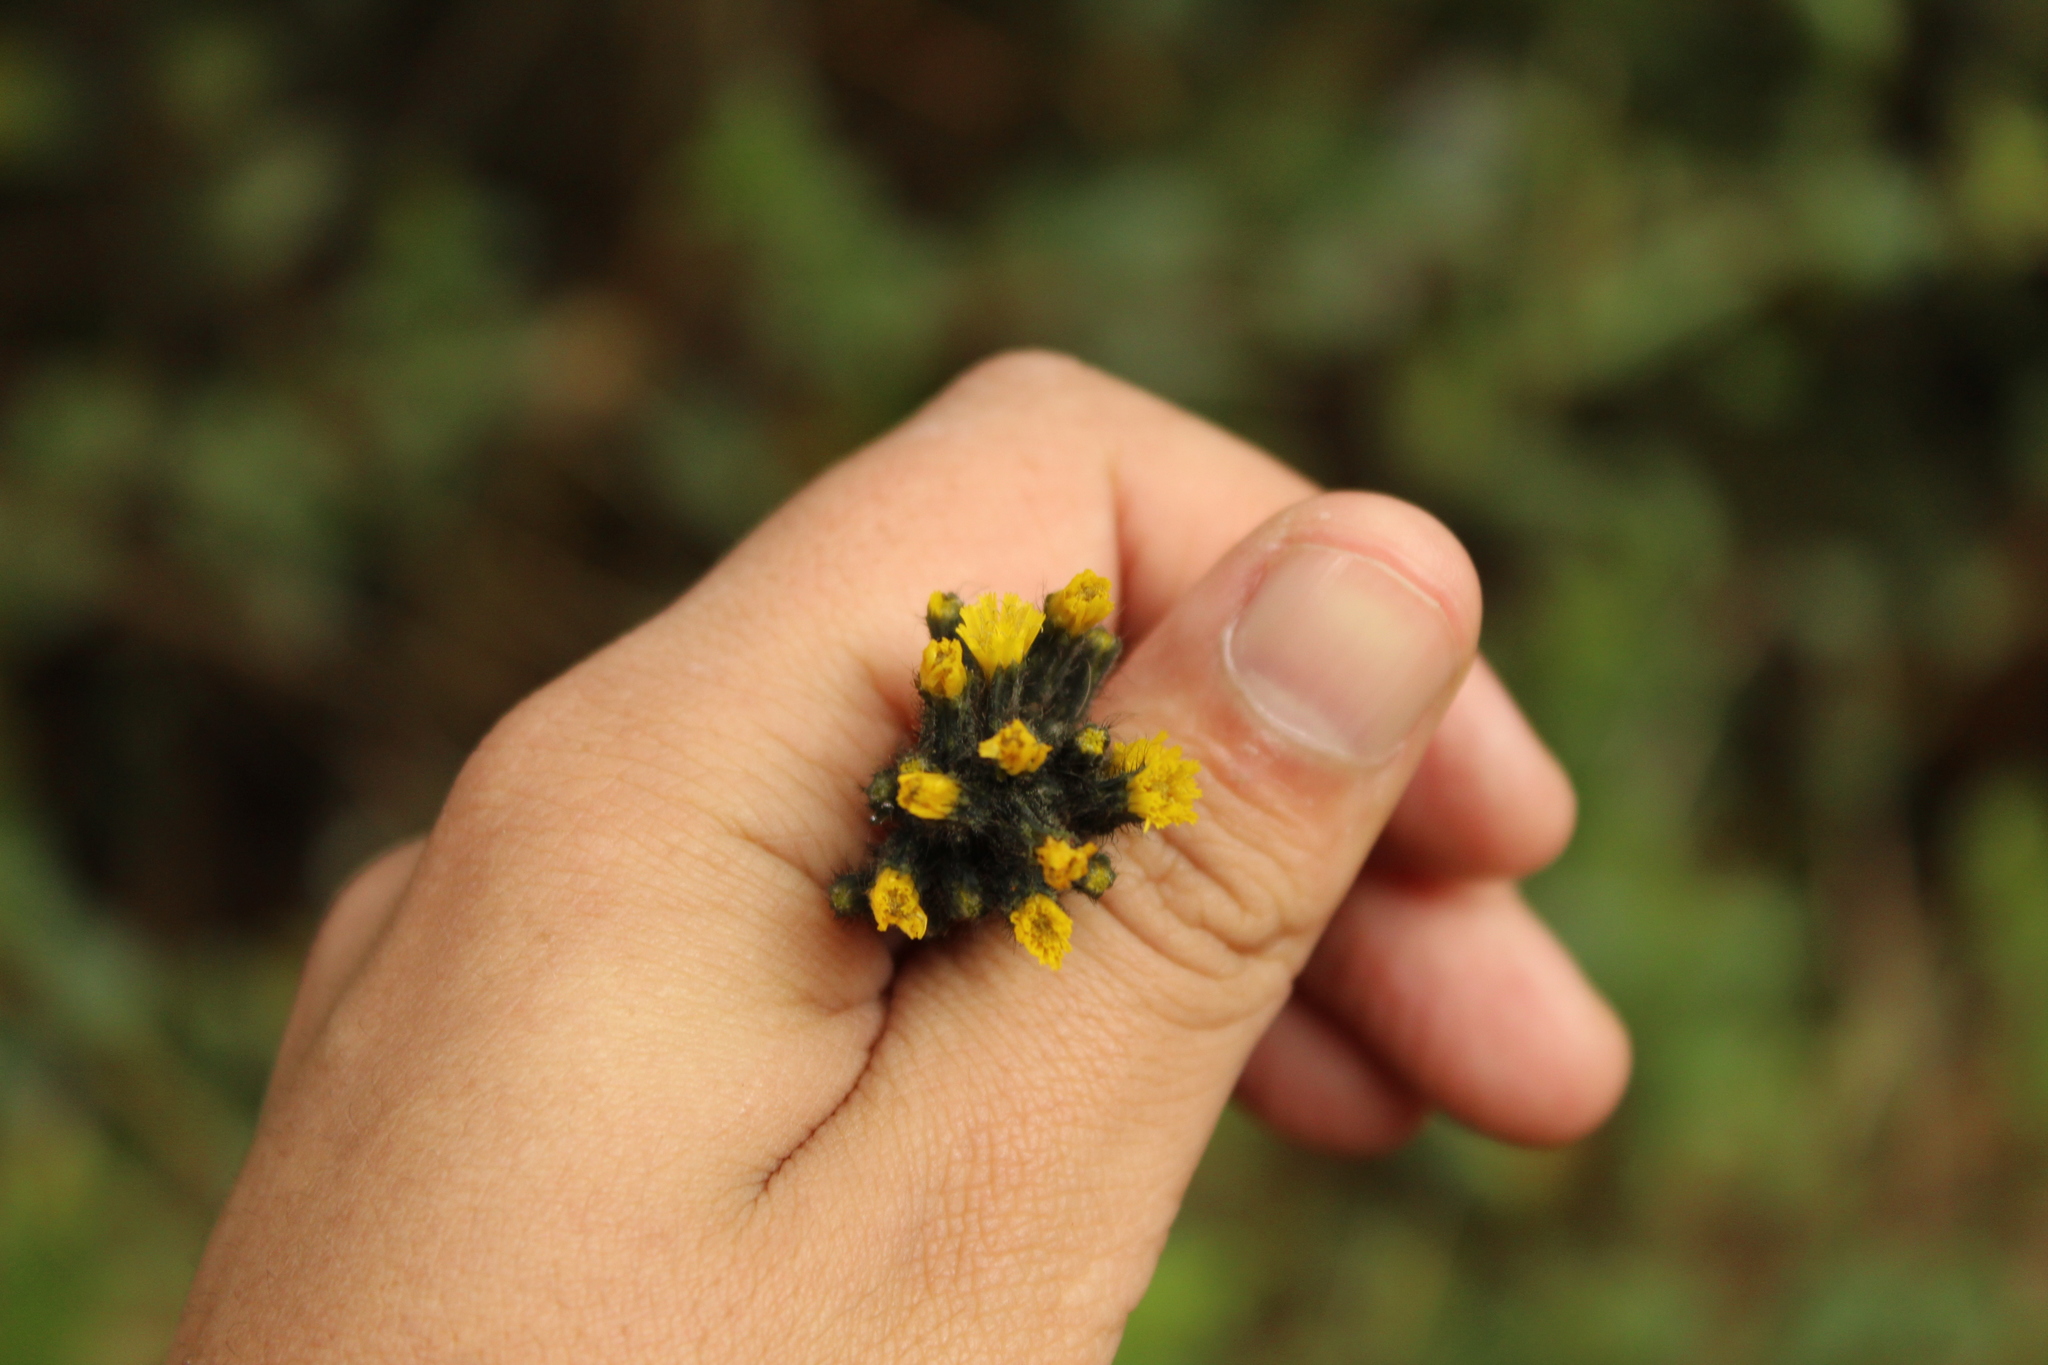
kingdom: Plantae
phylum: Tracheophyta
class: Magnoliopsida
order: Asterales
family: Asteraceae
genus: Hieracium
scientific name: Hieracium avilae
